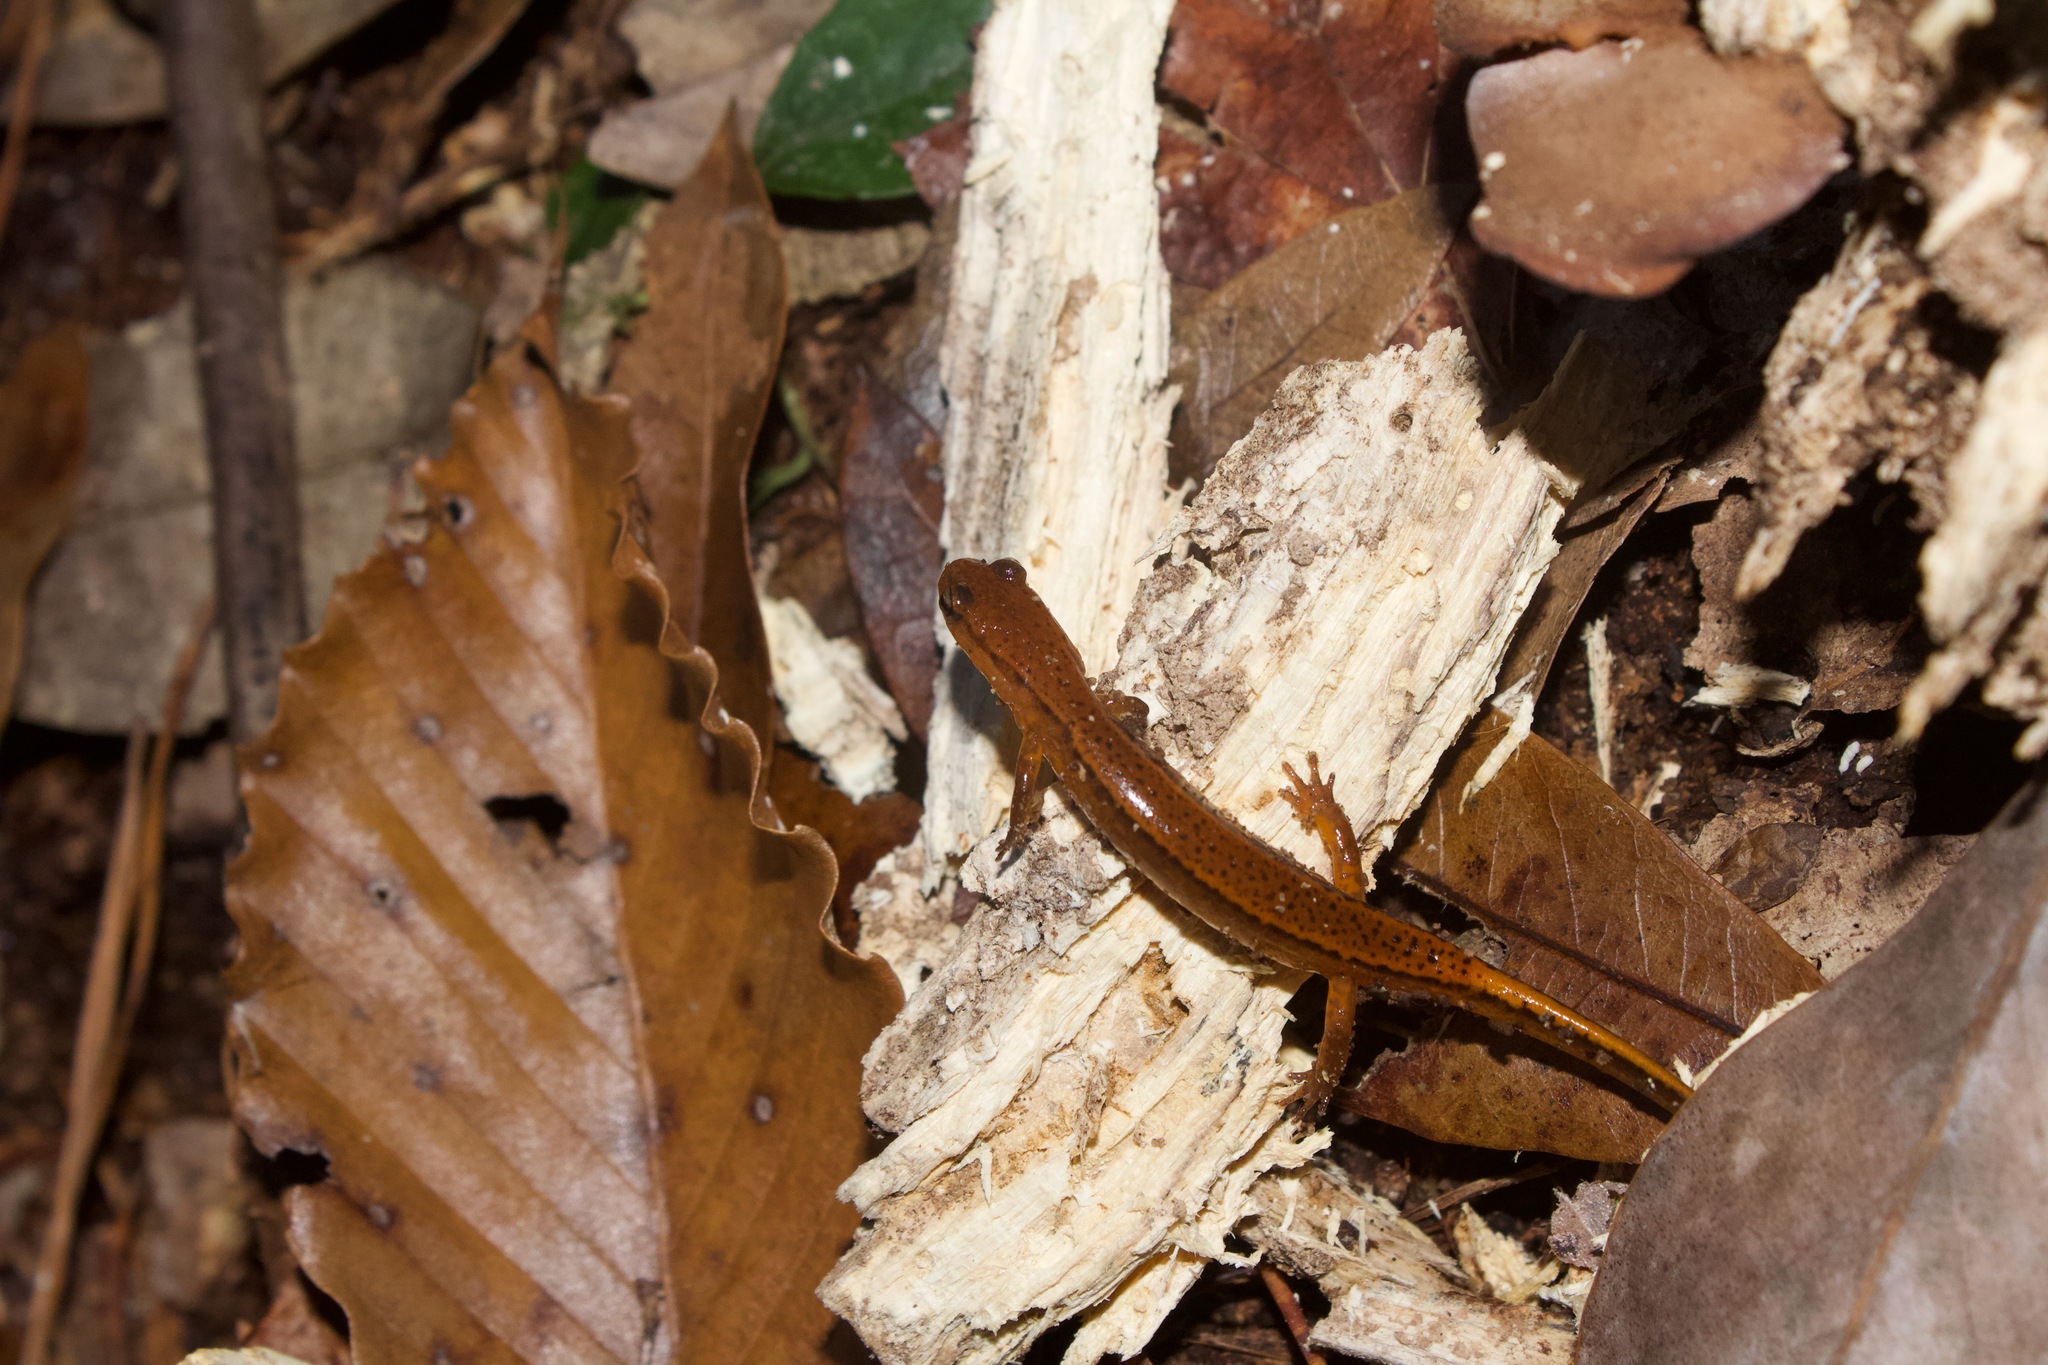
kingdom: Animalia
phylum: Chordata
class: Amphibia
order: Caudata
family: Plethodontidae
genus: Eurycea
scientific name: Eurycea cirrigera
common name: Southern two-lined salamander
